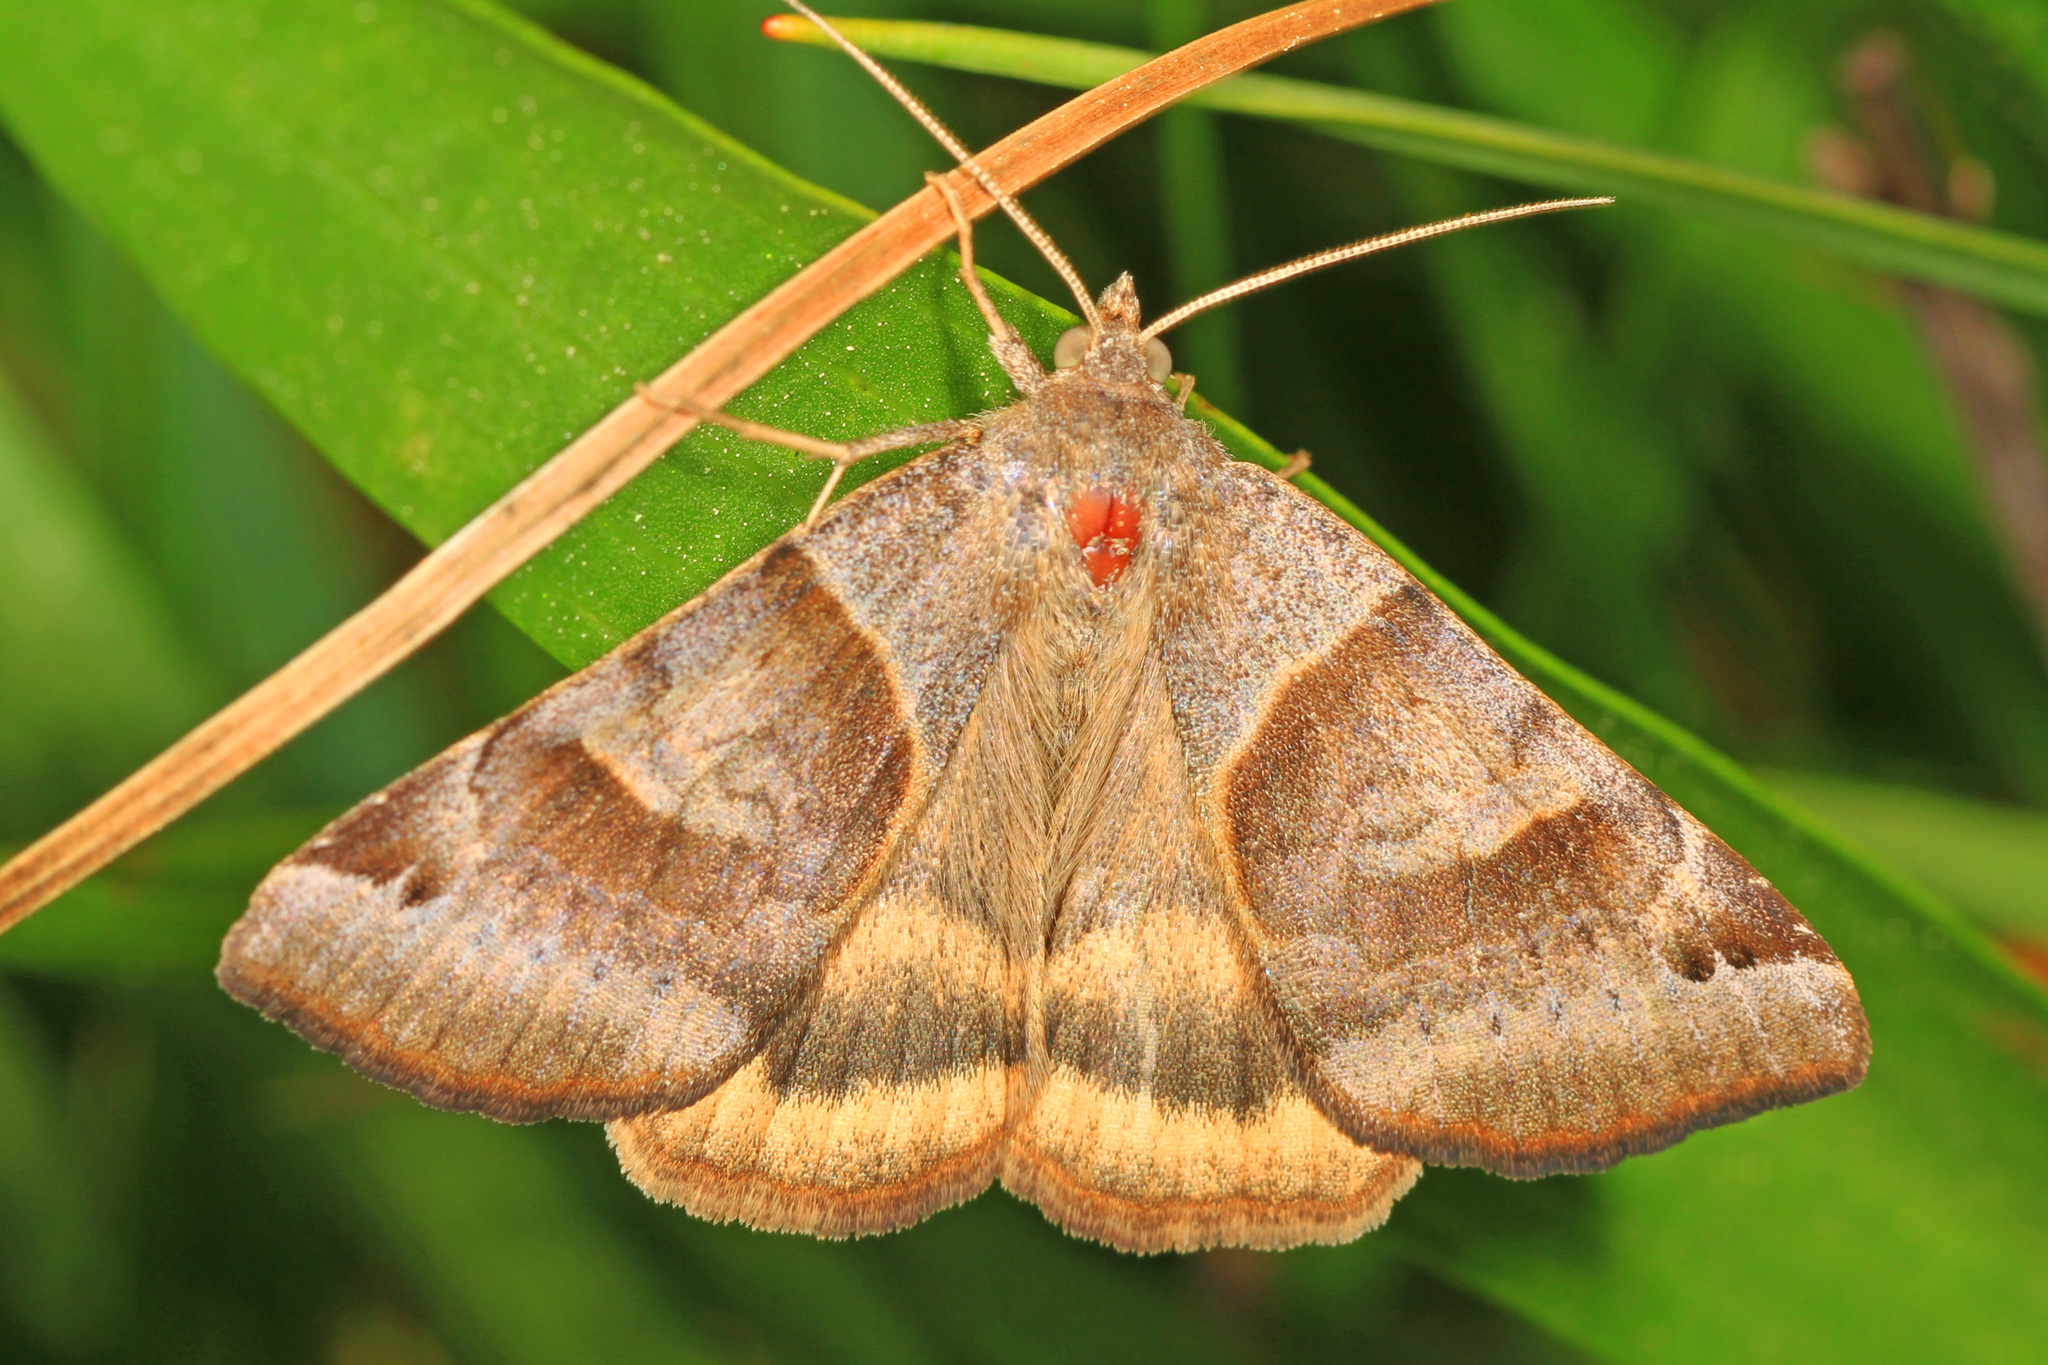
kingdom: Animalia
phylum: Arthropoda
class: Insecta
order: Lepidoptera
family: Erebidae
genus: Caenurgina
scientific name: Caenurgina crassiuscula
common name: Double-barred
